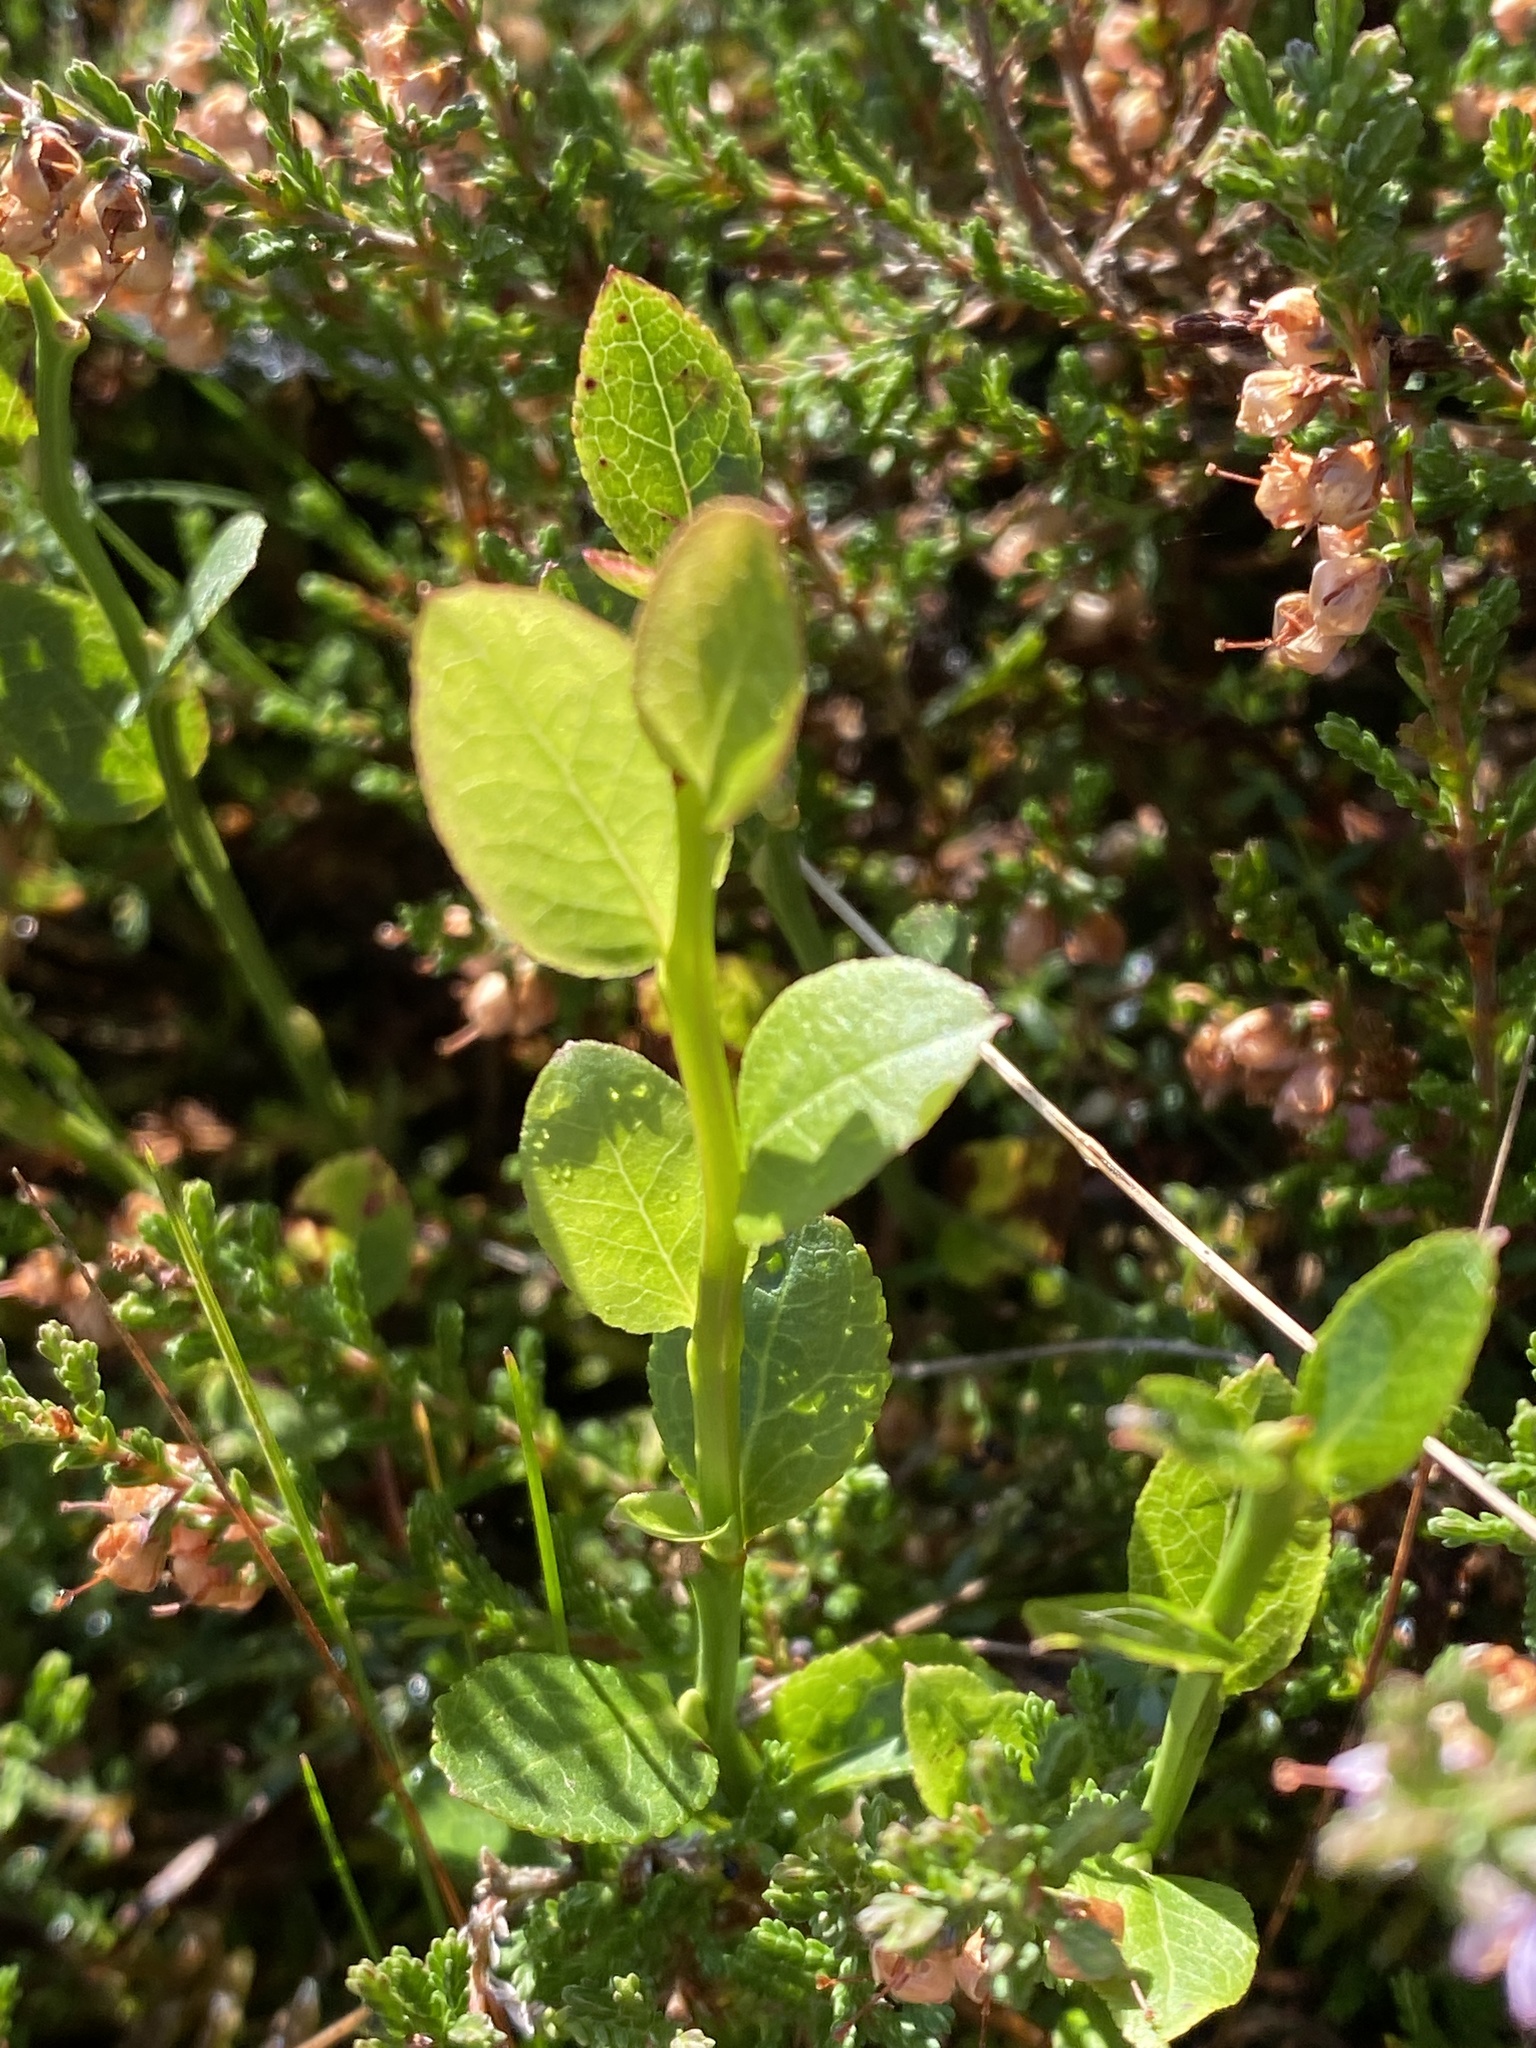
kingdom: Plantae
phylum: Tracheophyta
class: Magnoliopsida
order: Ericales
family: Ericaceae
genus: Vaccinium
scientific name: Vaccinium myrtillus
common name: Bilberry
